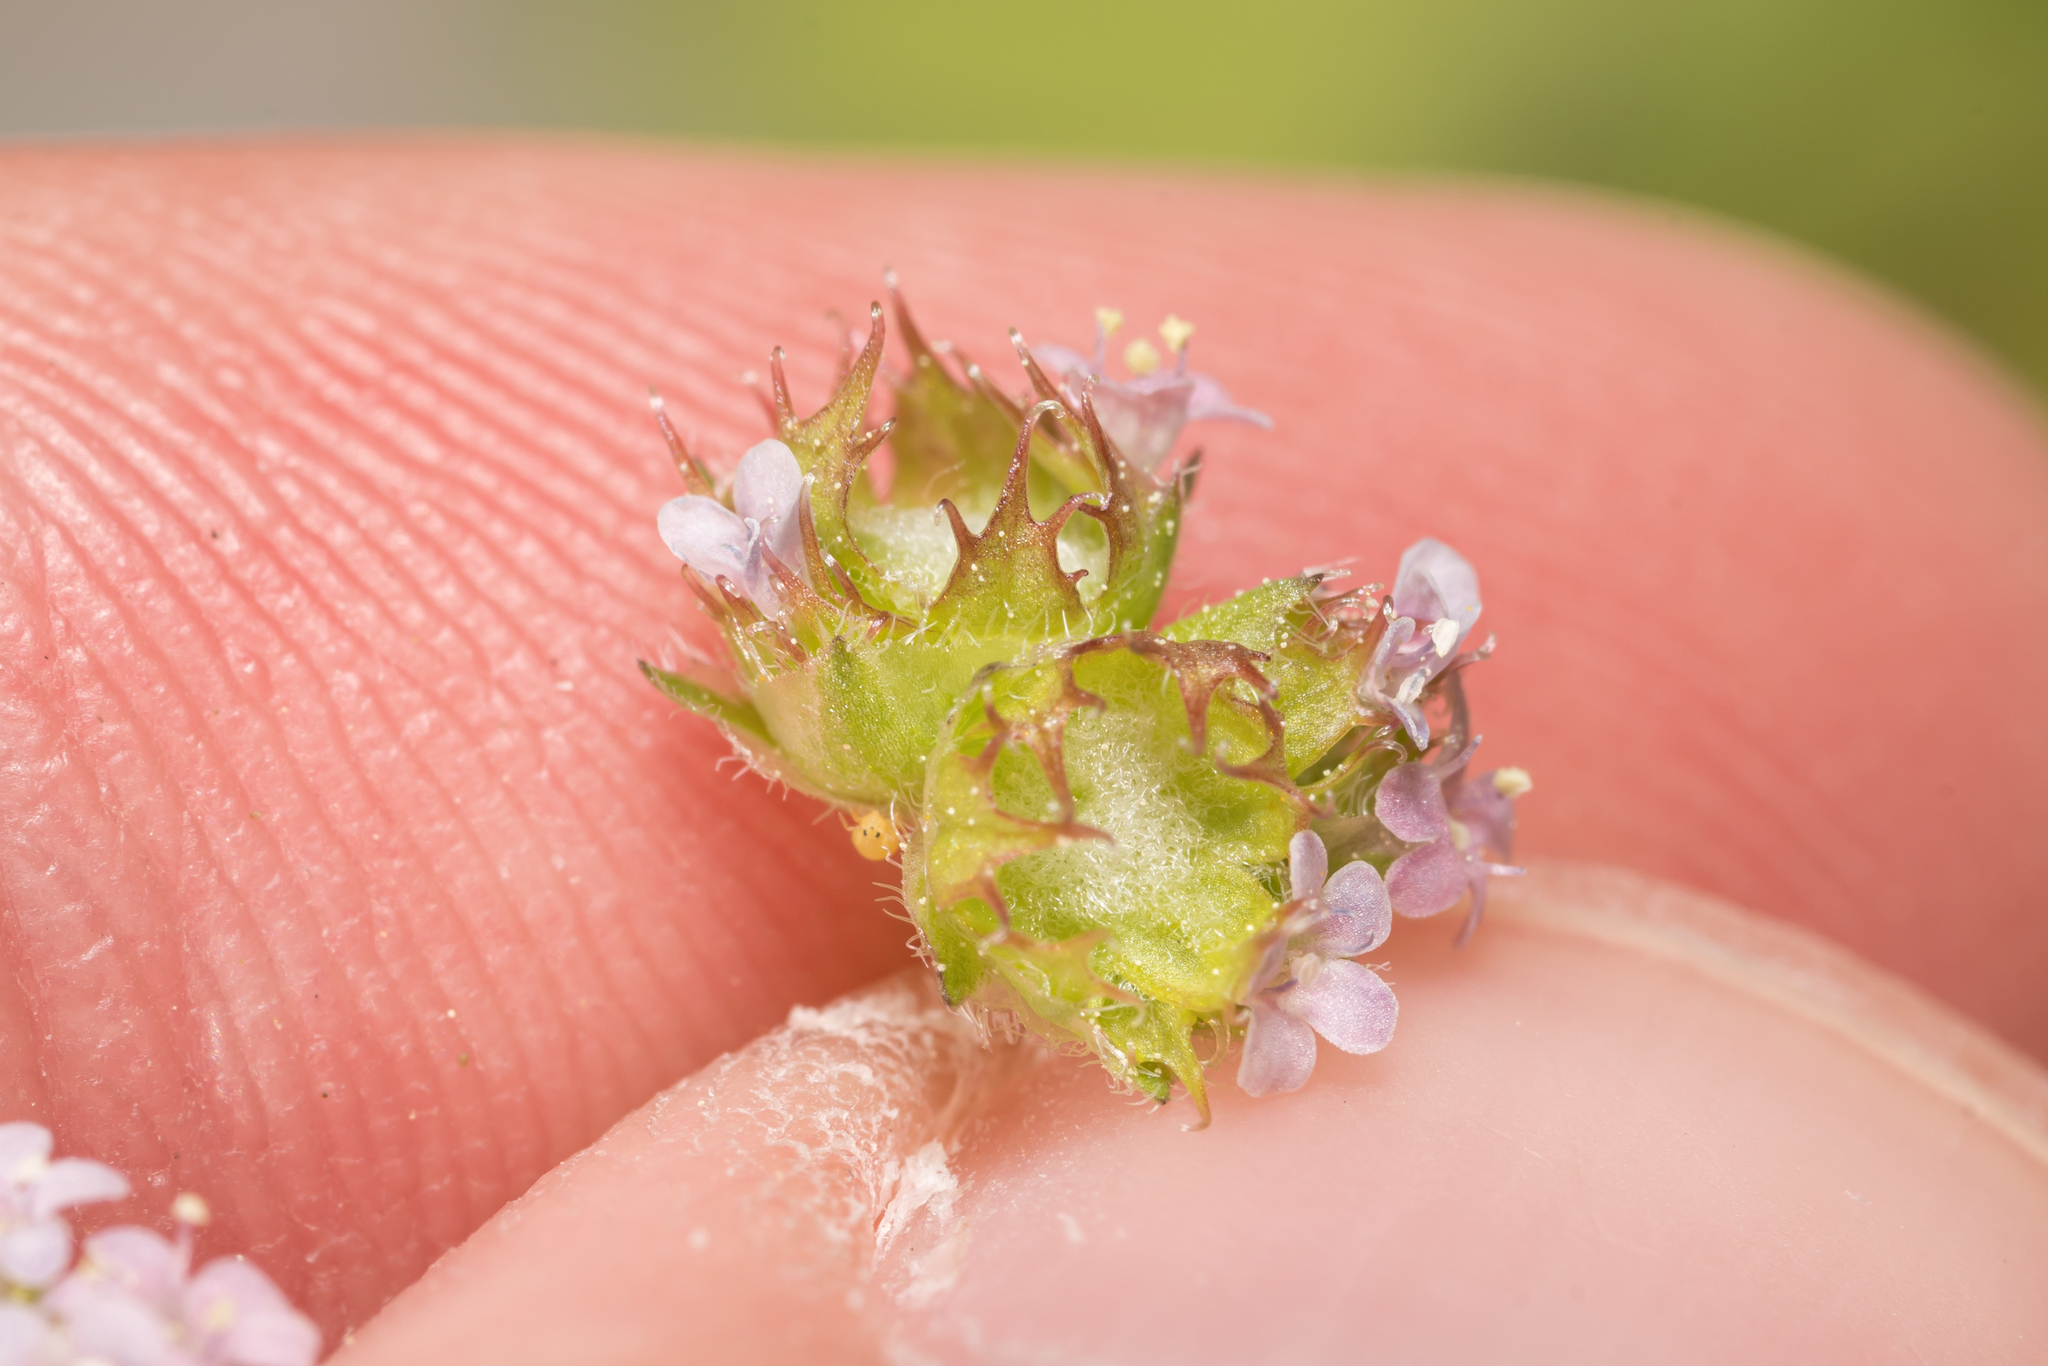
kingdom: Plantae
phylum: Tracheophyta
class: Magnoliopsida
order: Dipsacales
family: Caprifoliaceae
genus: Valerianella
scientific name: Valerianella obtusiloba
